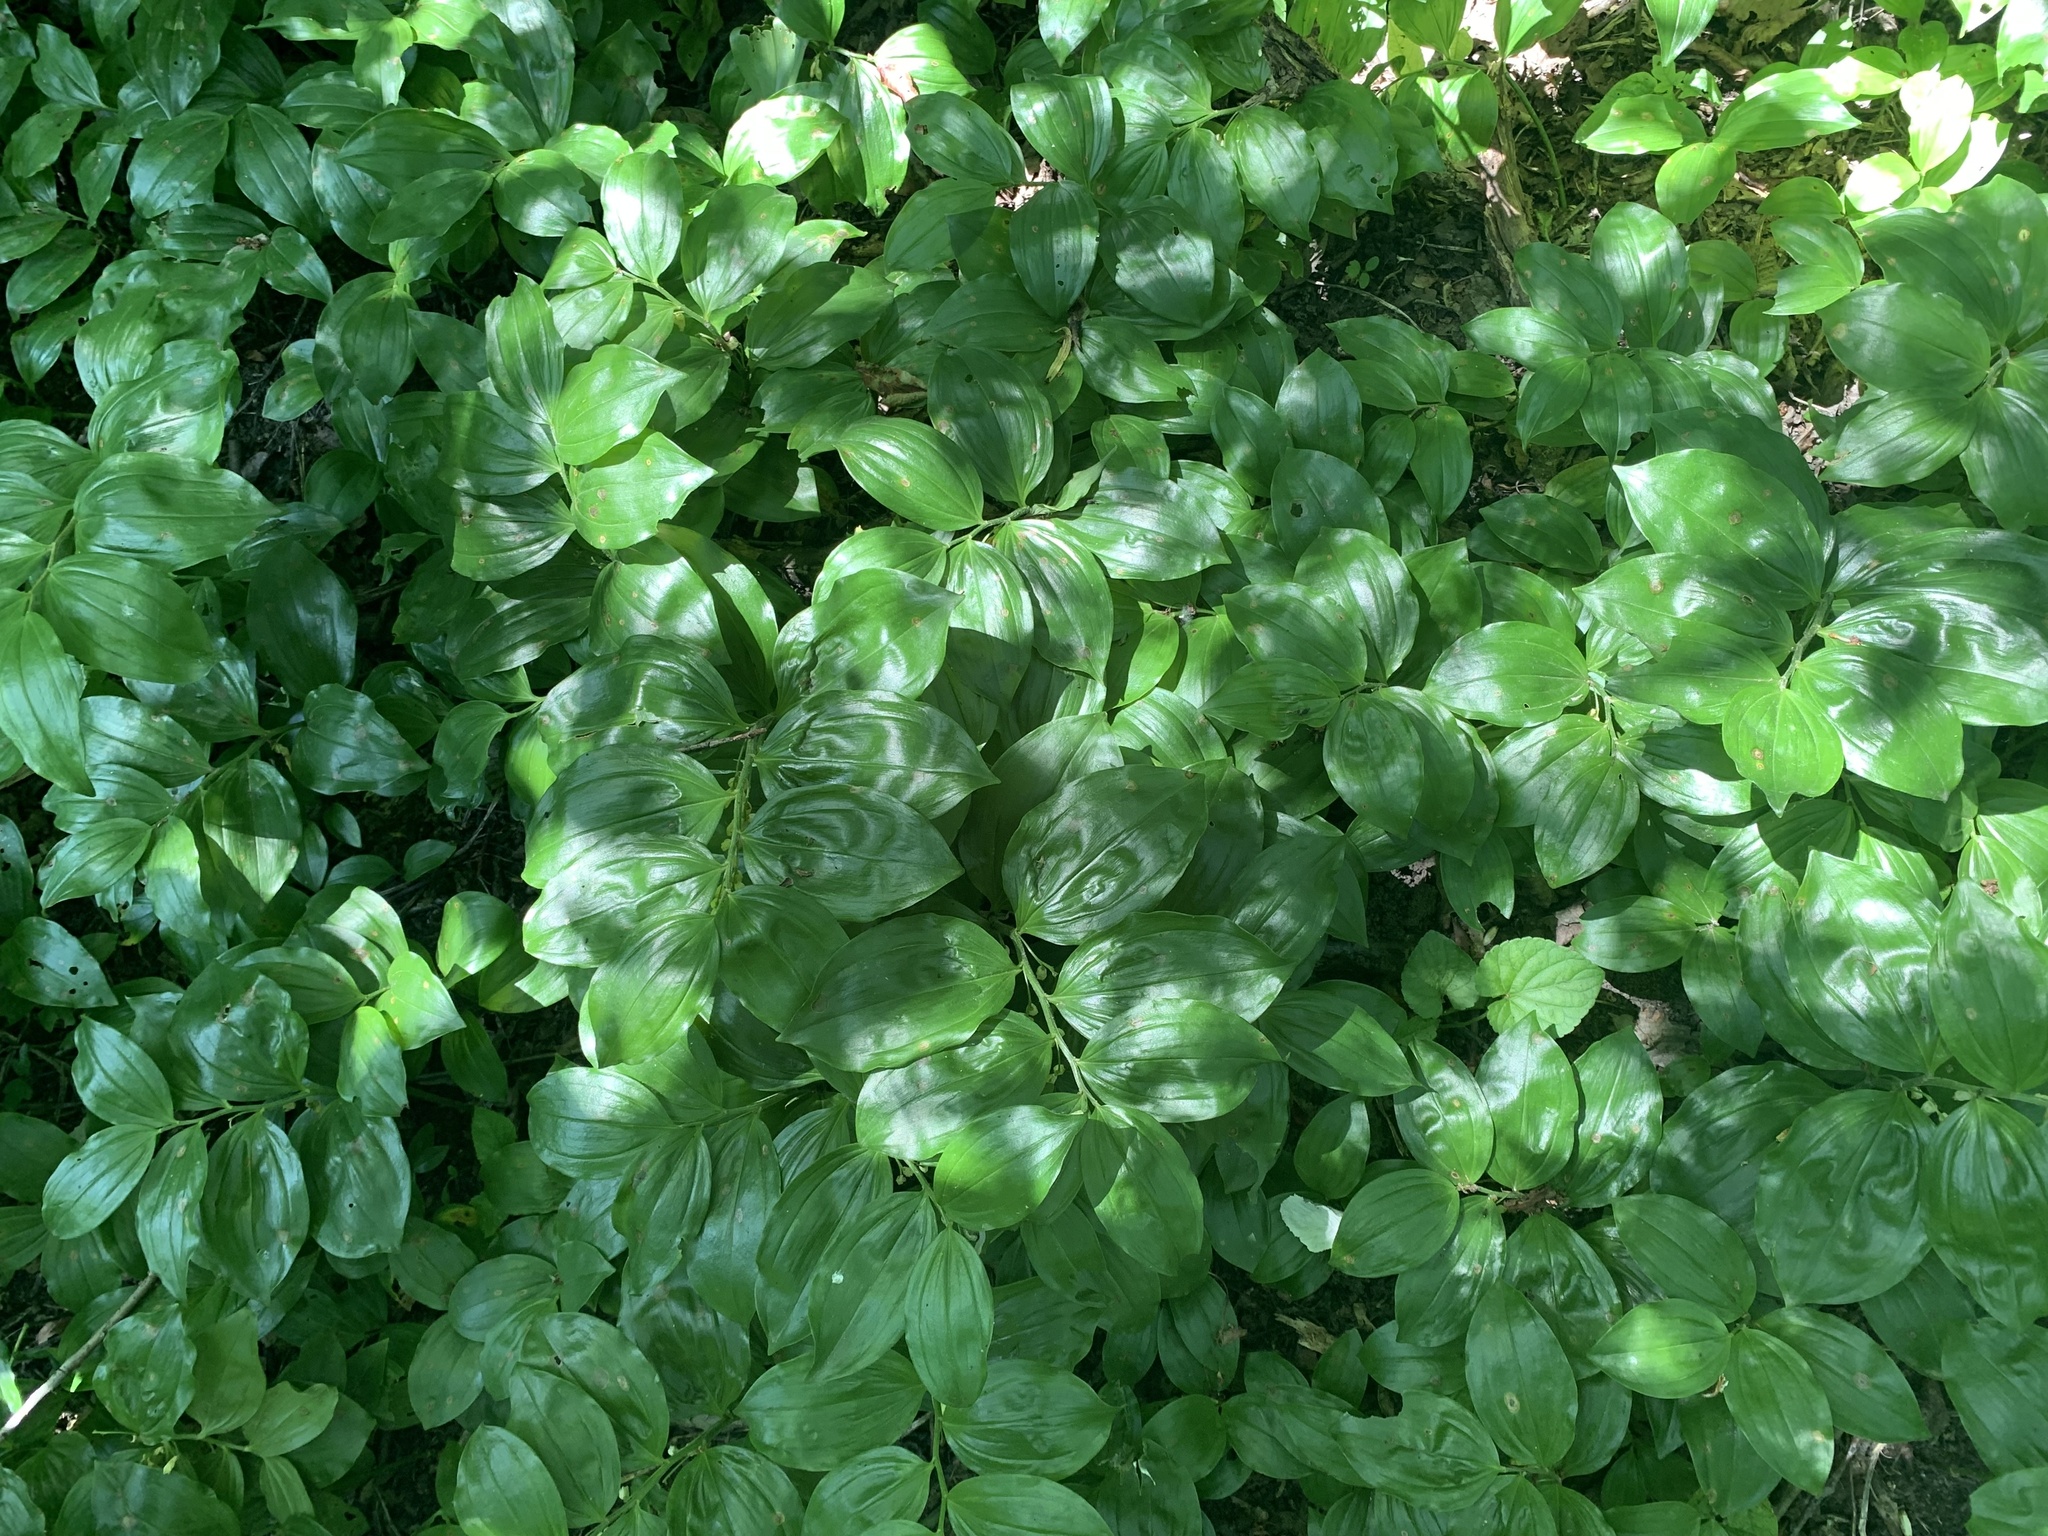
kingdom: Plantae
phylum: Tracheophyta
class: Liliopsida
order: Asparagales
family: Asparagaceae
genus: Polygonatum
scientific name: Polygonatum latifolium
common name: Broadleaf solomon's seal
